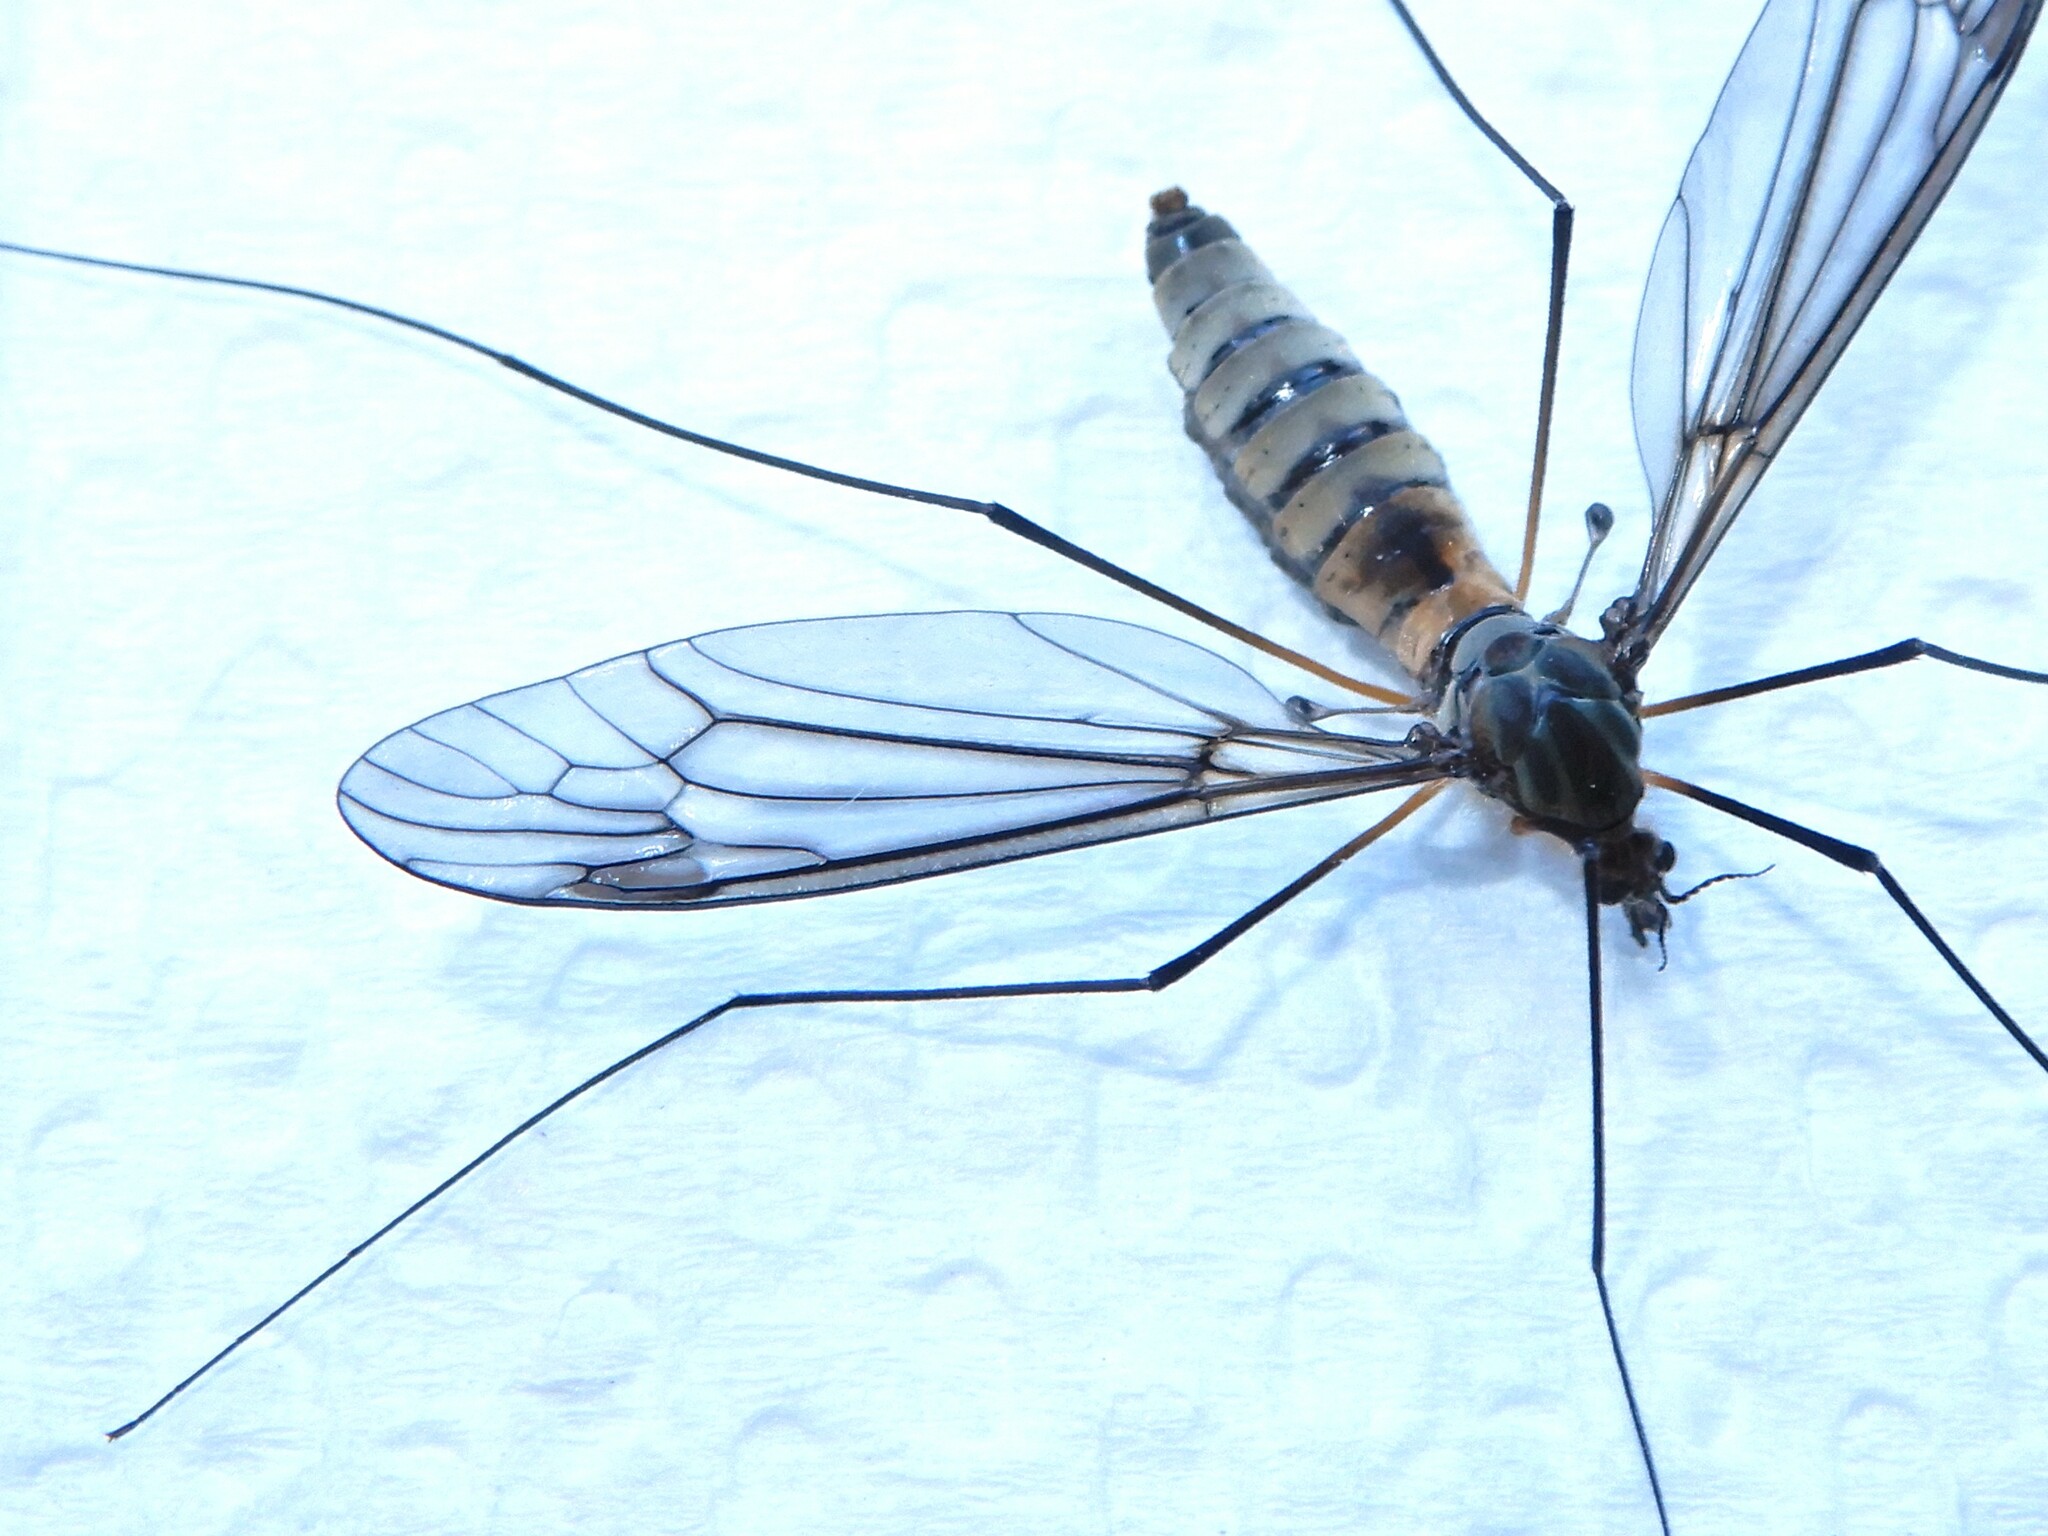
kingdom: Animalia
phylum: Arthropoda
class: Insecta
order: Diptera
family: Tipulidae
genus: Leptotarsus
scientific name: Leptotarsus rufibasis
